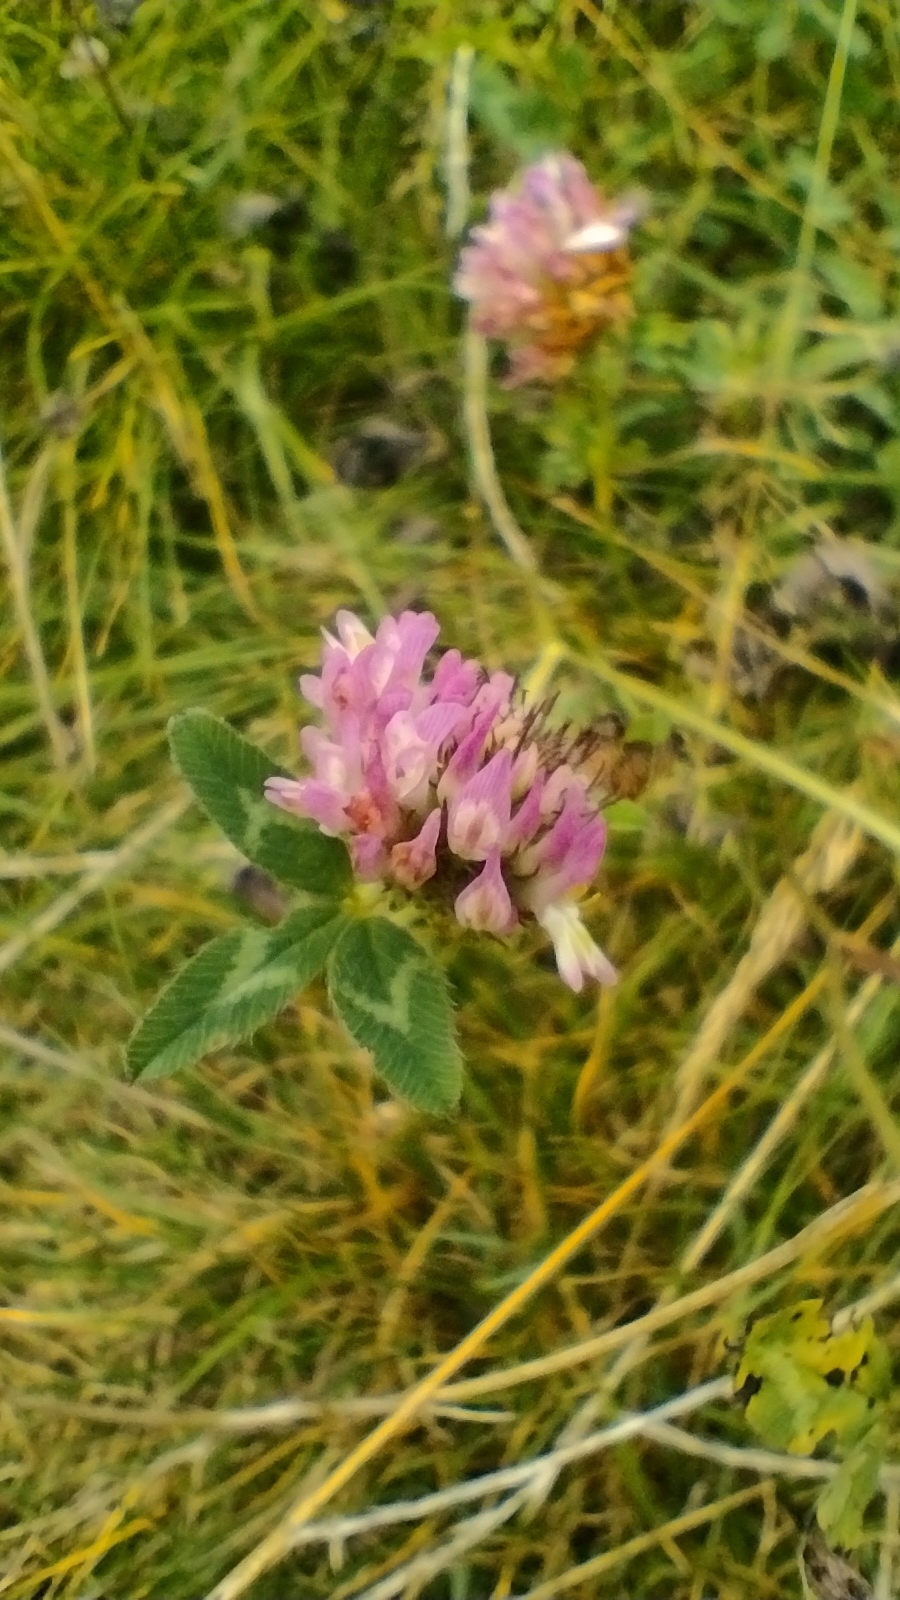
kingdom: Plantae
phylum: Tracheophyta
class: Magnoliopsida
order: Fabales
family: Fabaceae
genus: Trifolium
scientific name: Trifolium pratense
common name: Red clover
